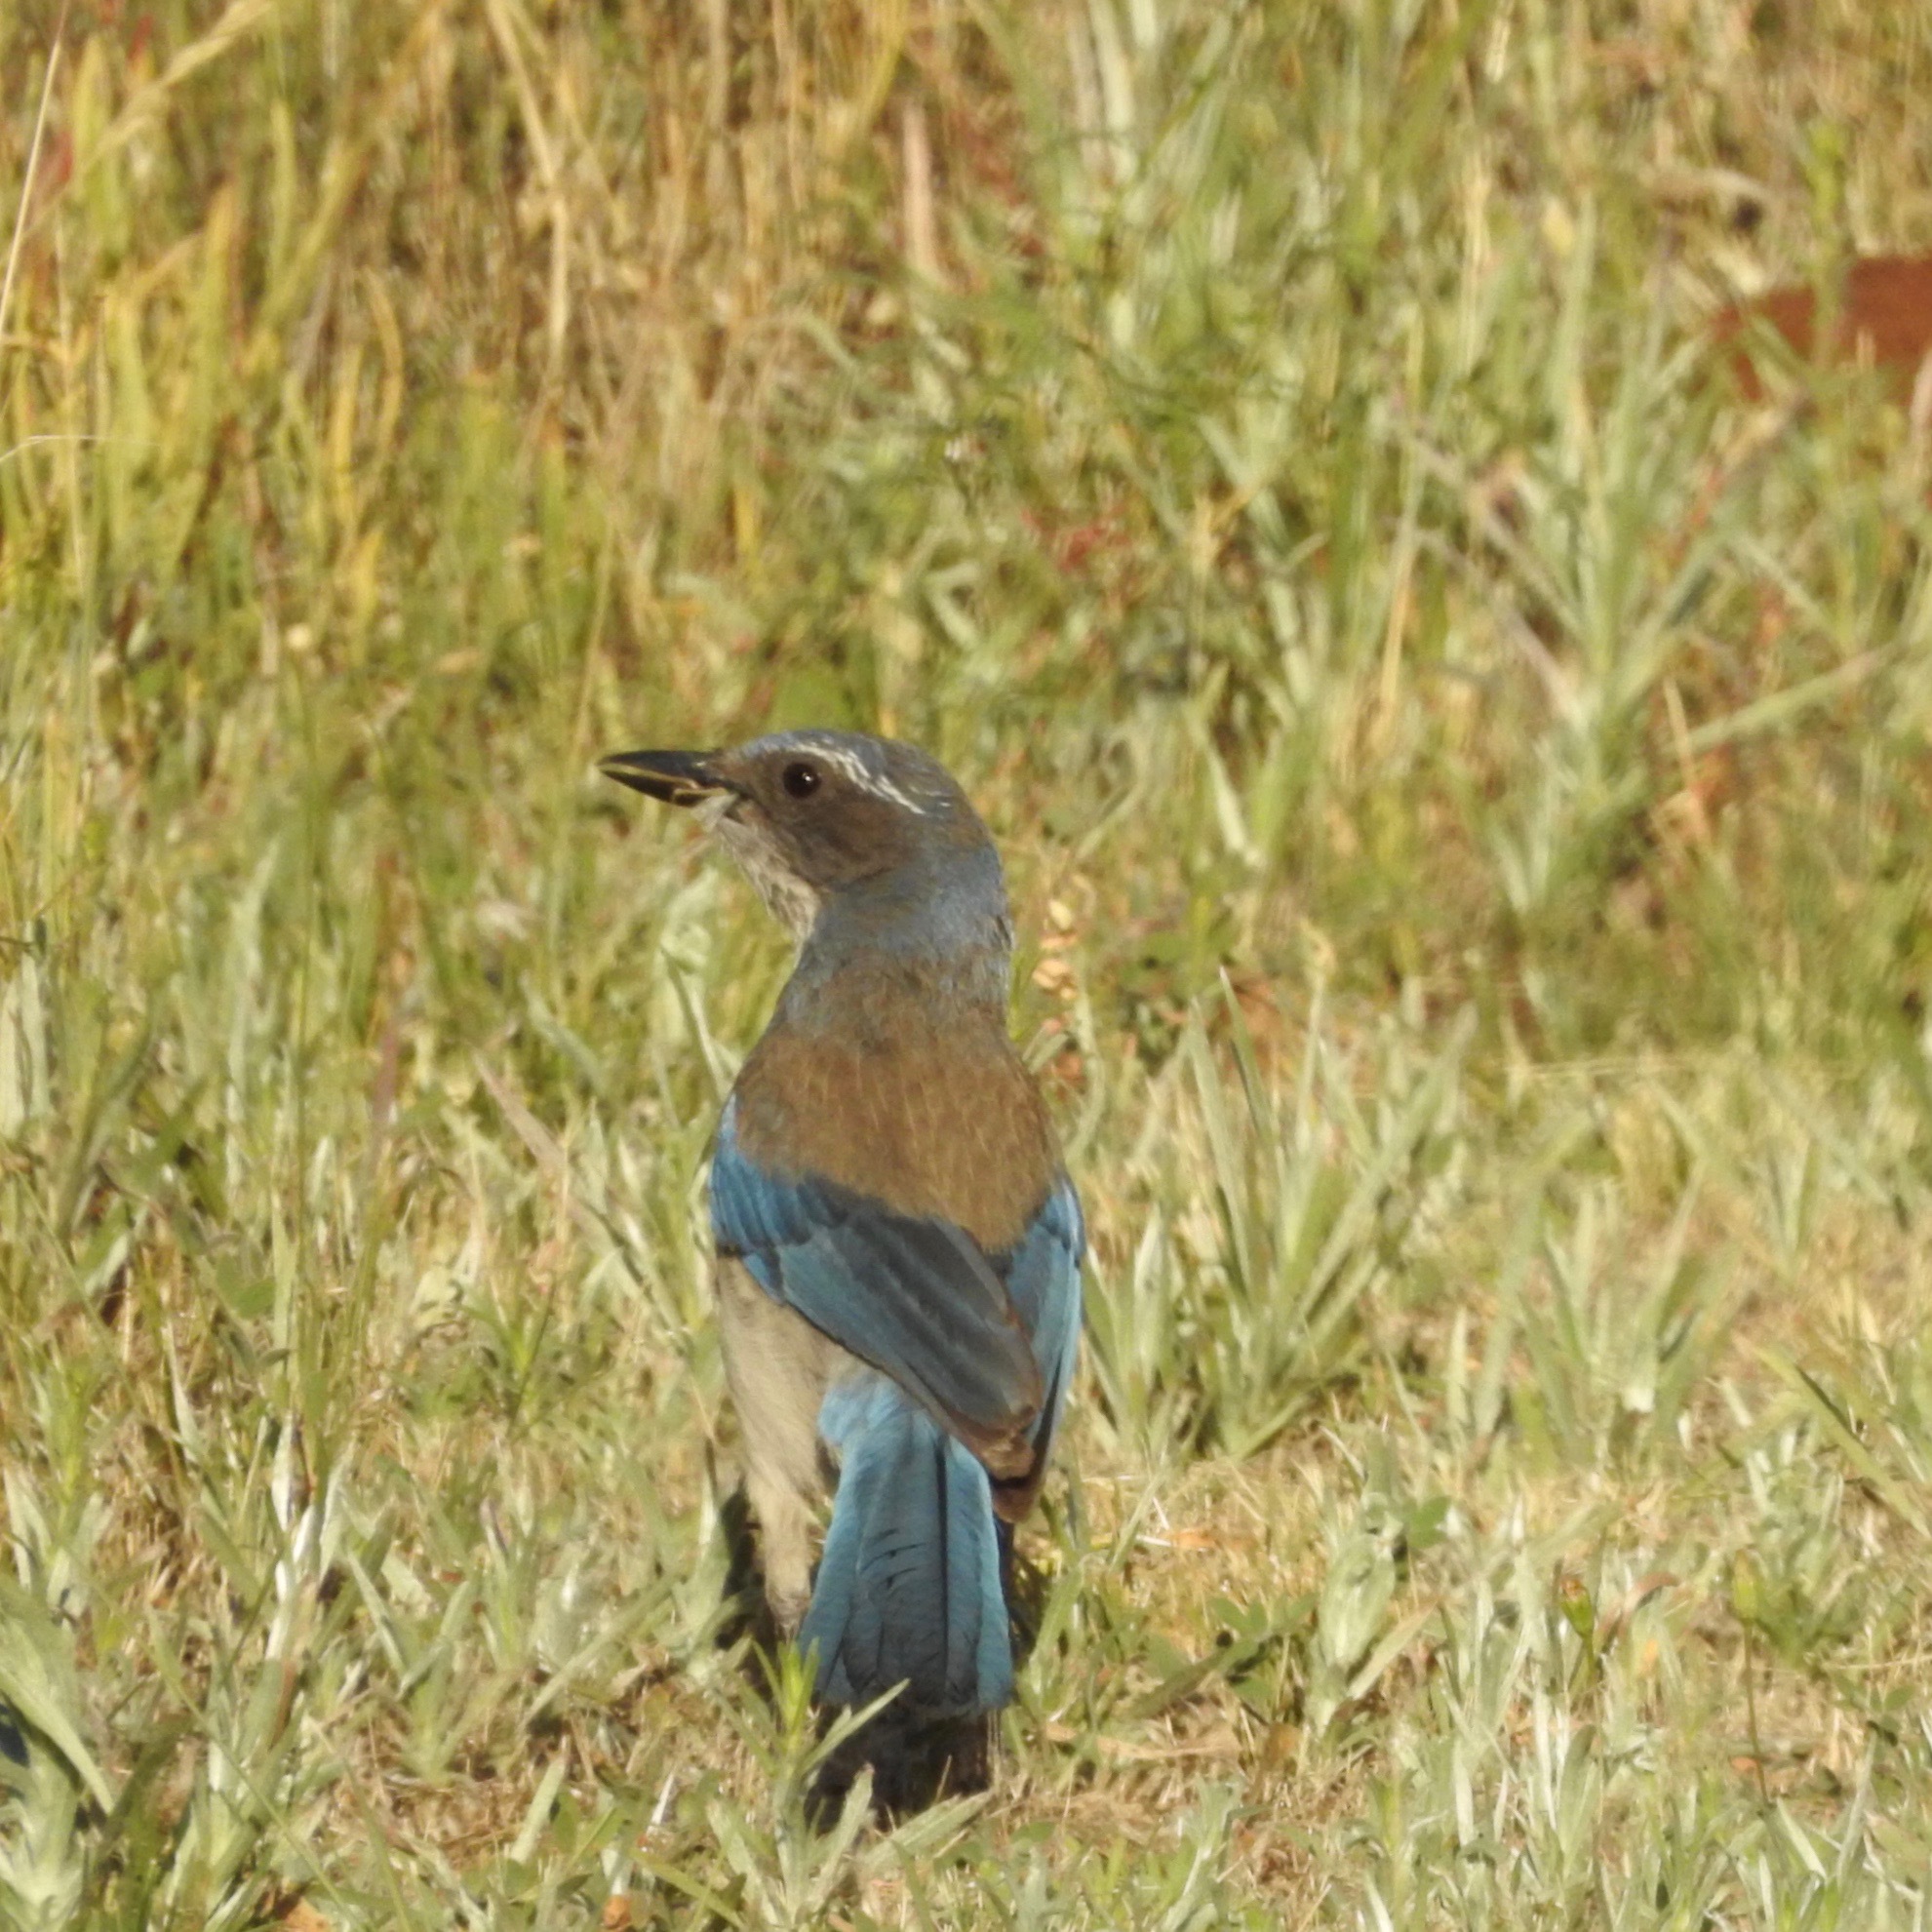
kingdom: Animalia
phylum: Chordata
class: Aves
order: Passeriformes
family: Corvidae
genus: Aphelocoma
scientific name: Aphelocoma californica
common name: California scrub-jay
